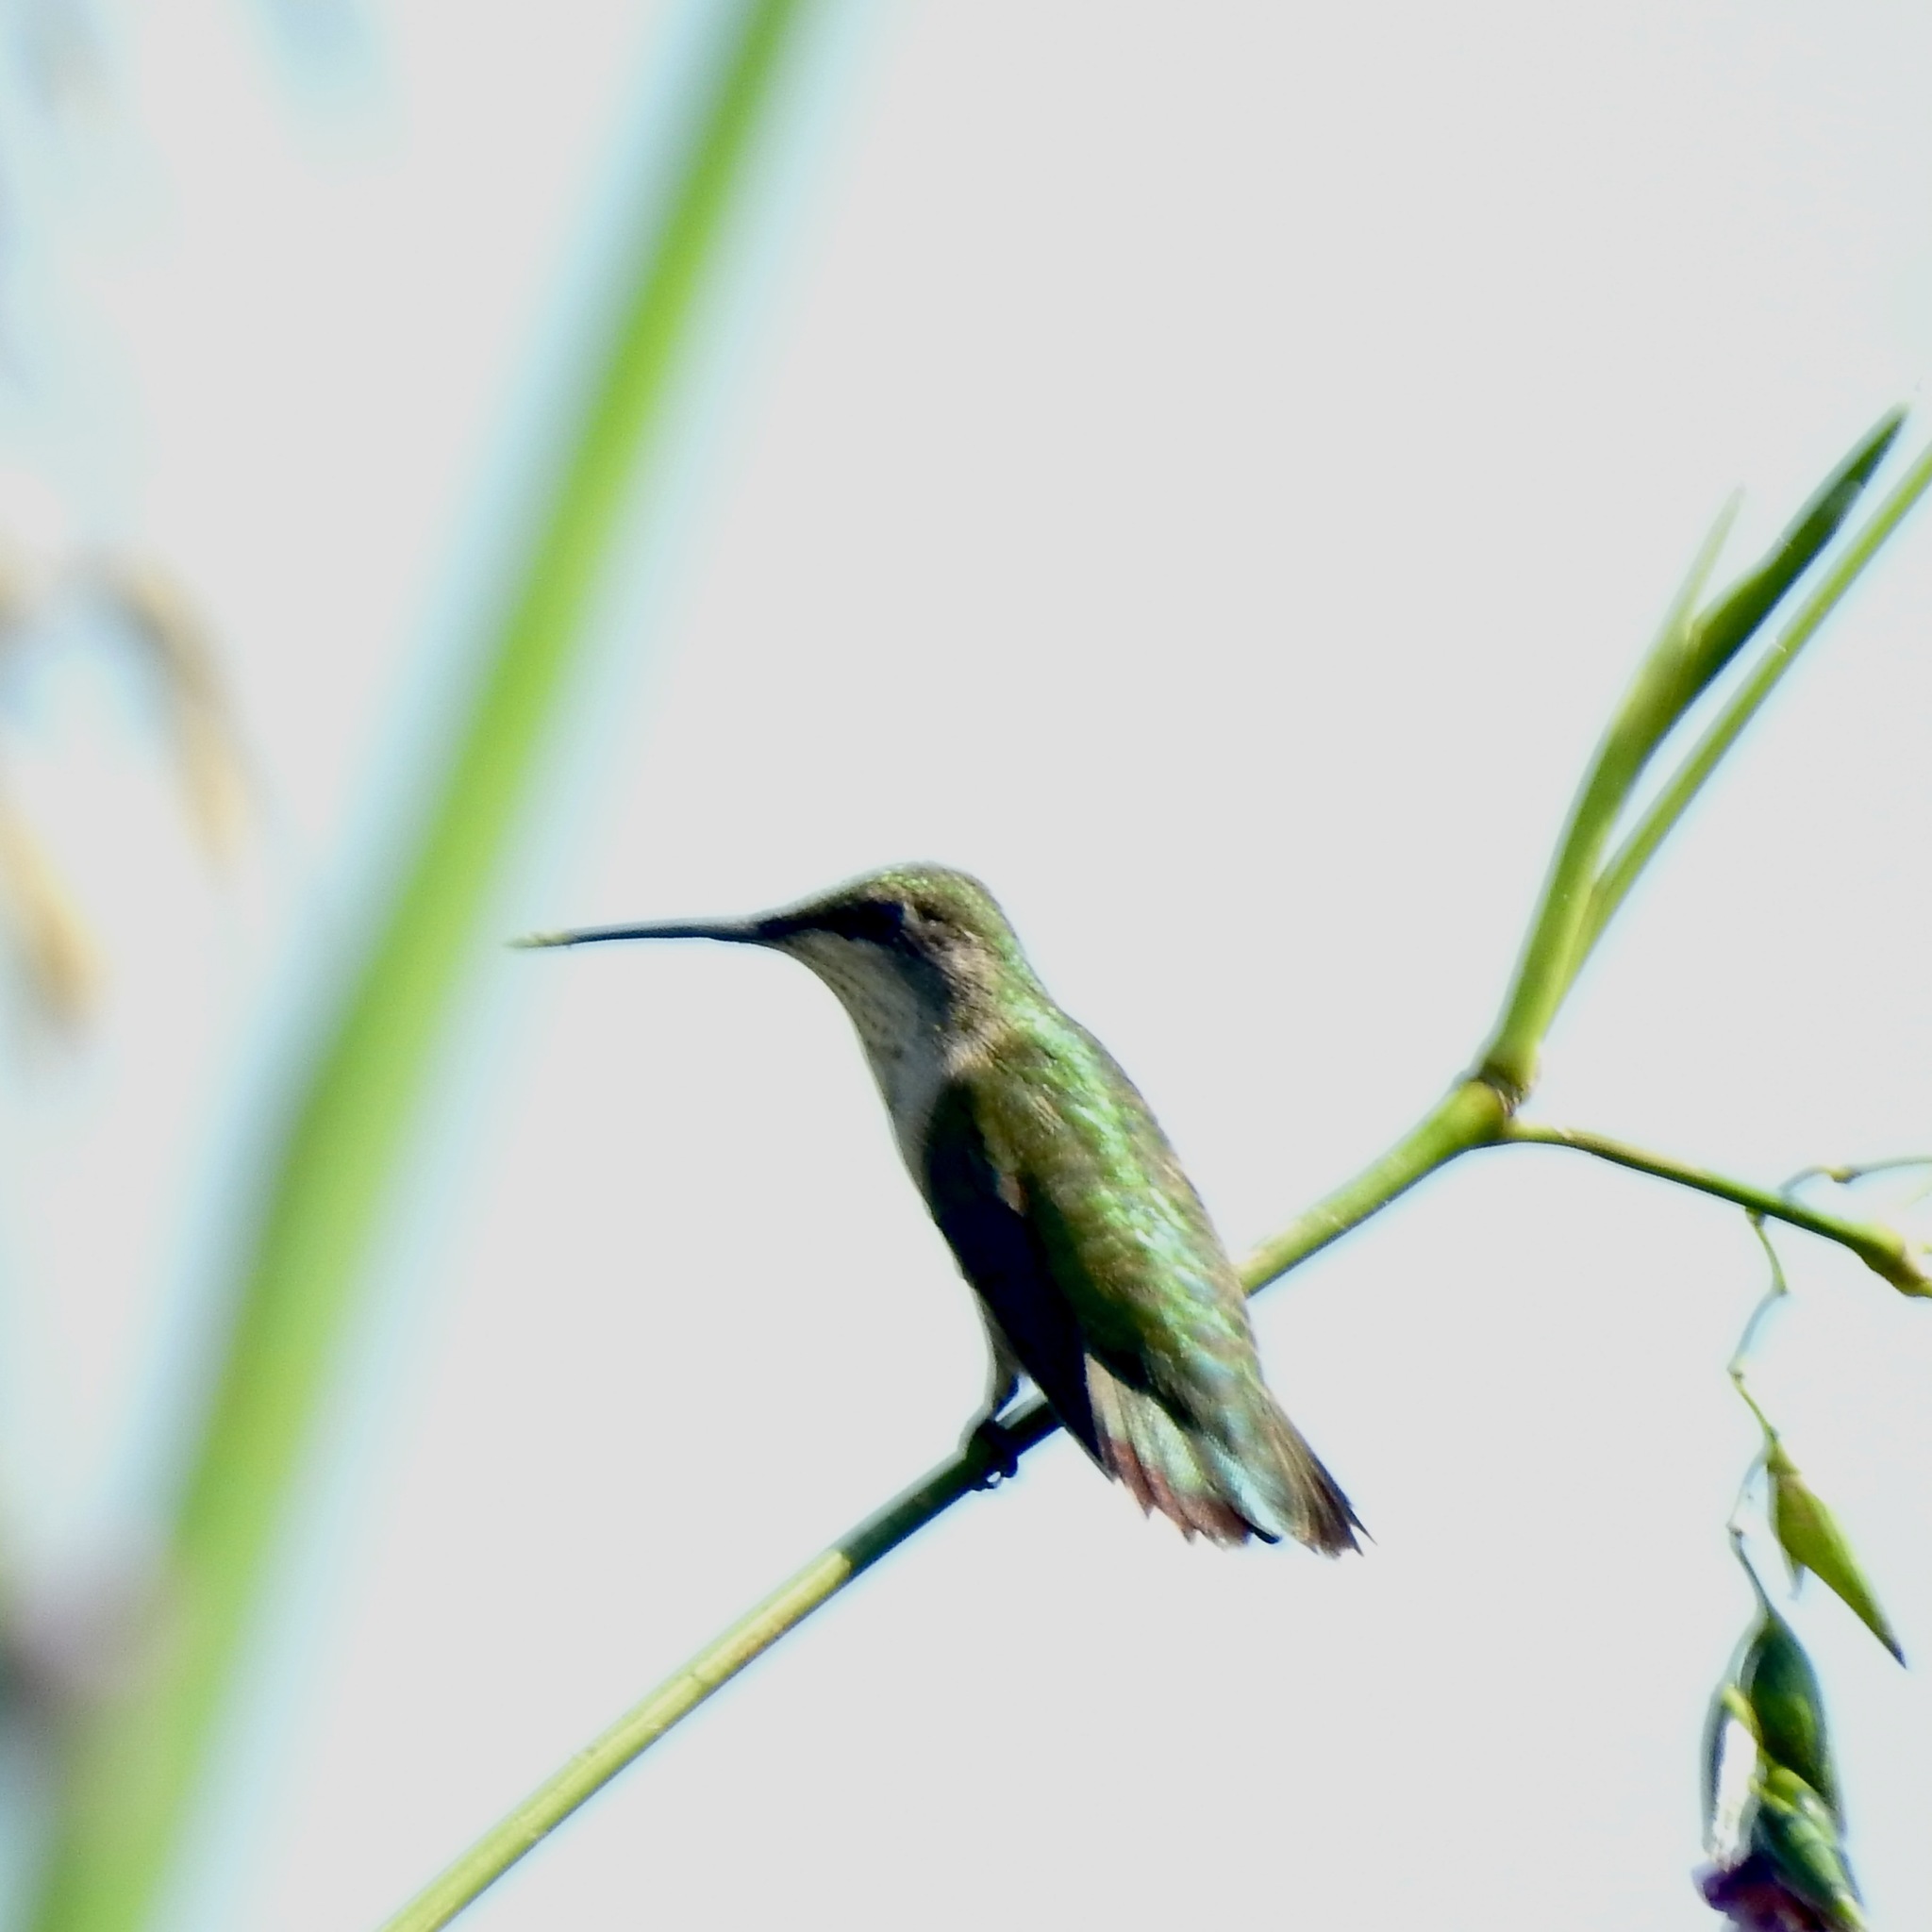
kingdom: Animalia
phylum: Chordata
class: Aves
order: Apodiformes
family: Trochilidae
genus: Archilochus
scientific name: Archilochus colubris
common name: Ruby-throated hummingbird
